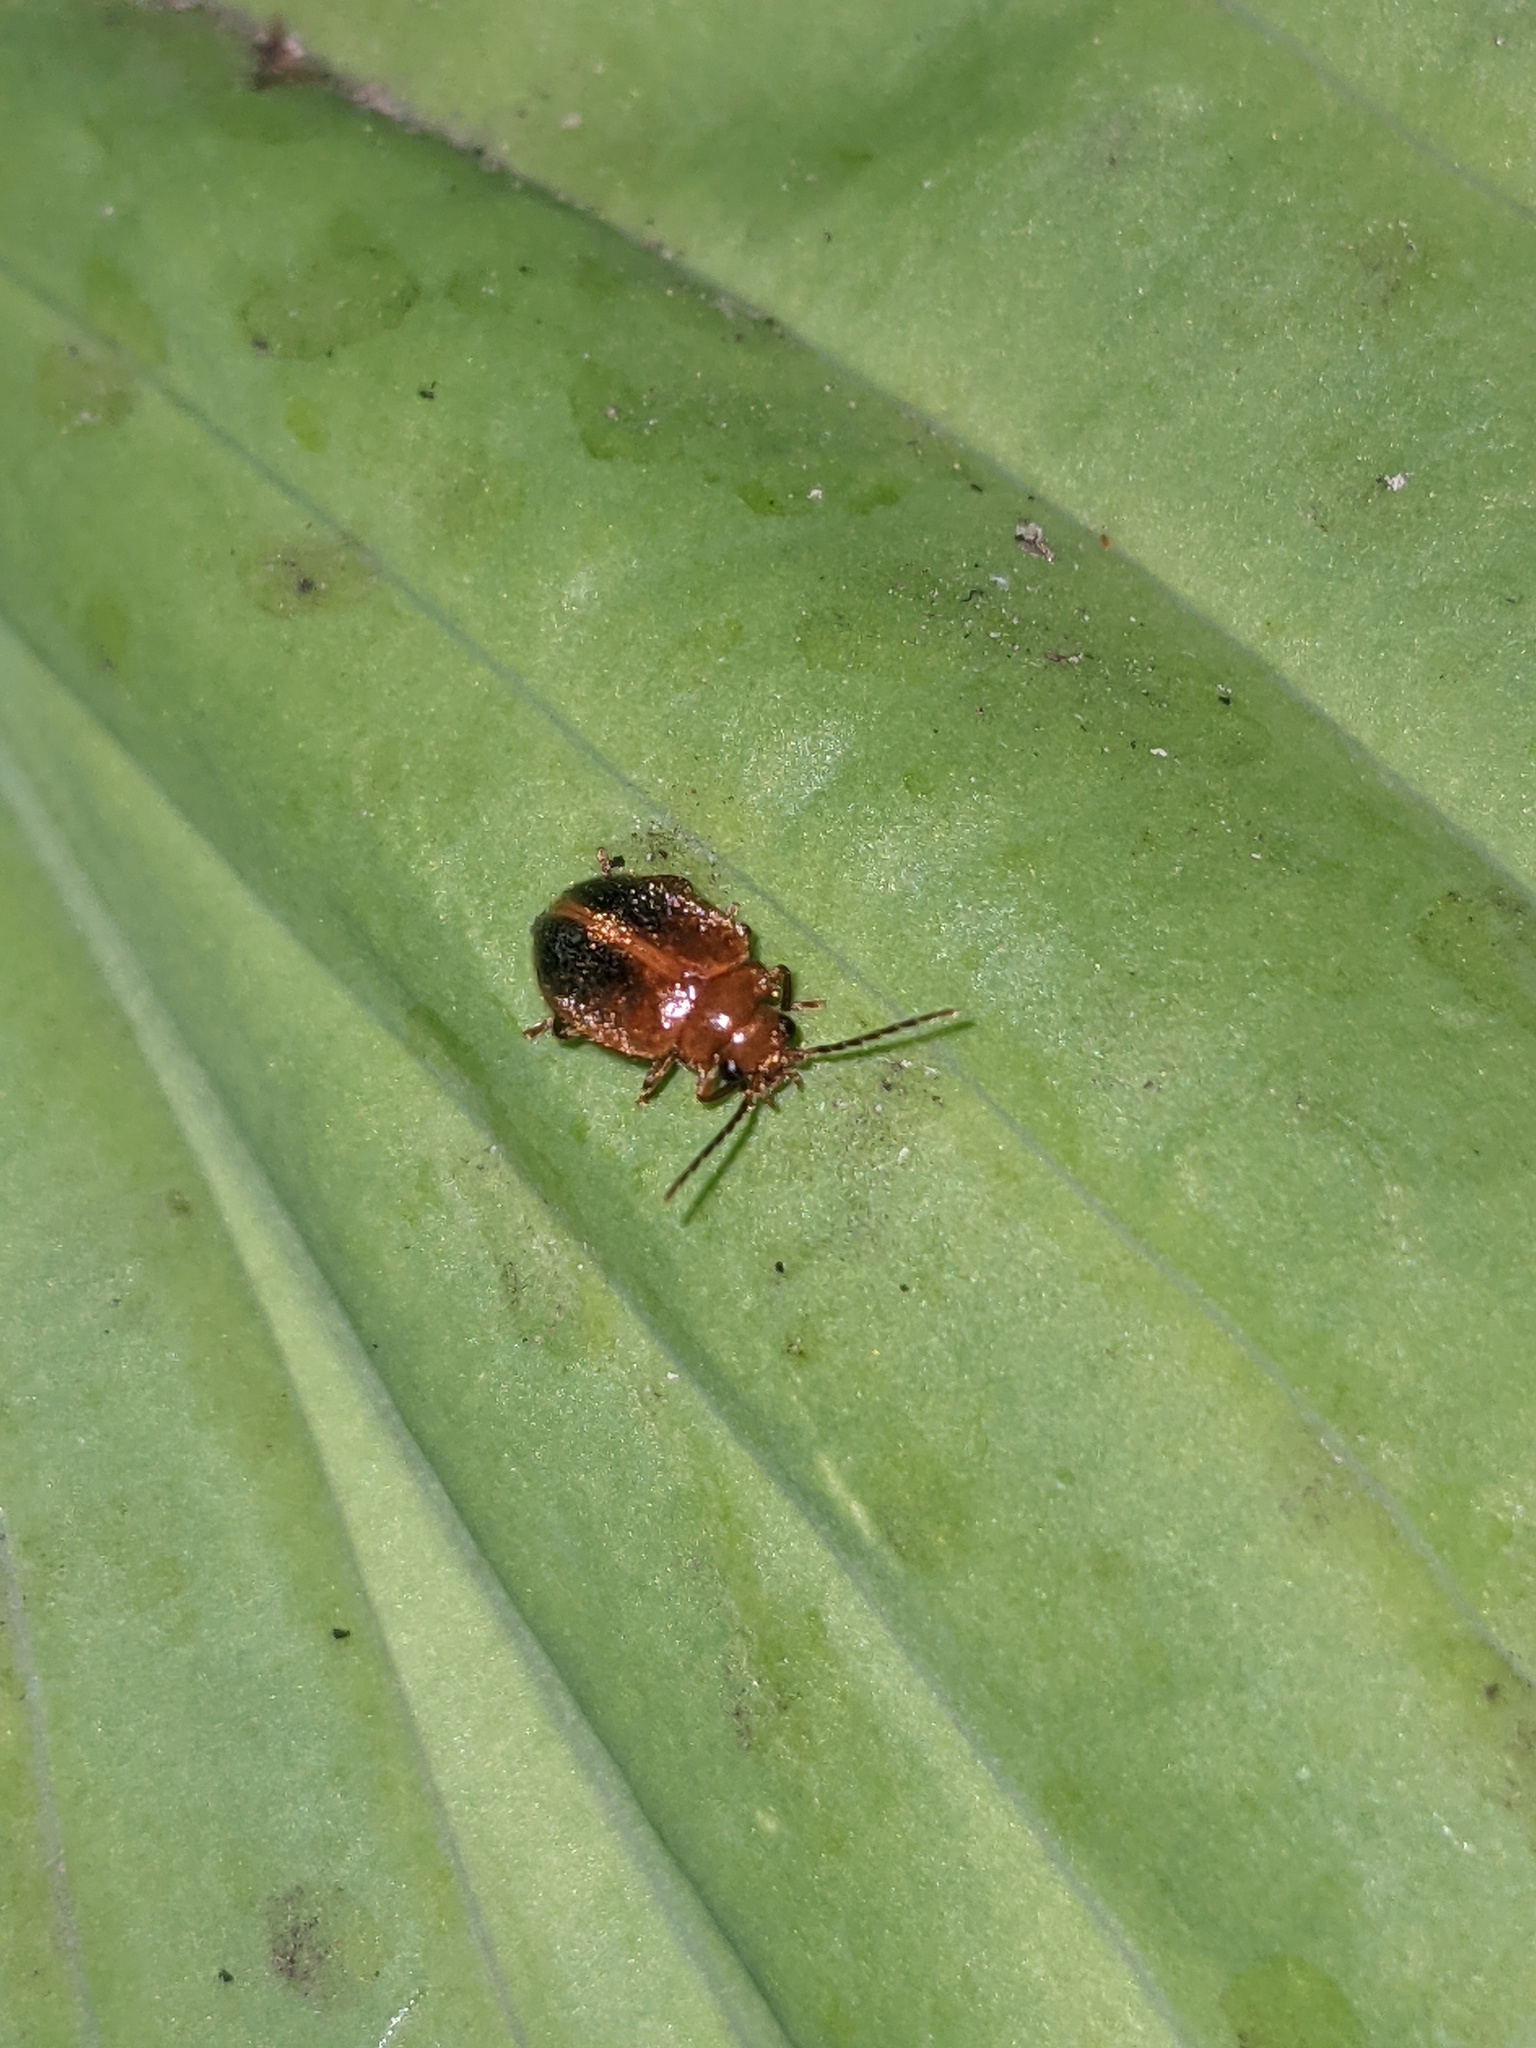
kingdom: Animalia
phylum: Arthropoda
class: Insecta
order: Coleoptera
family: Scirtidae
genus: Prionocyphon
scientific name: Prionocyphon limbatus
